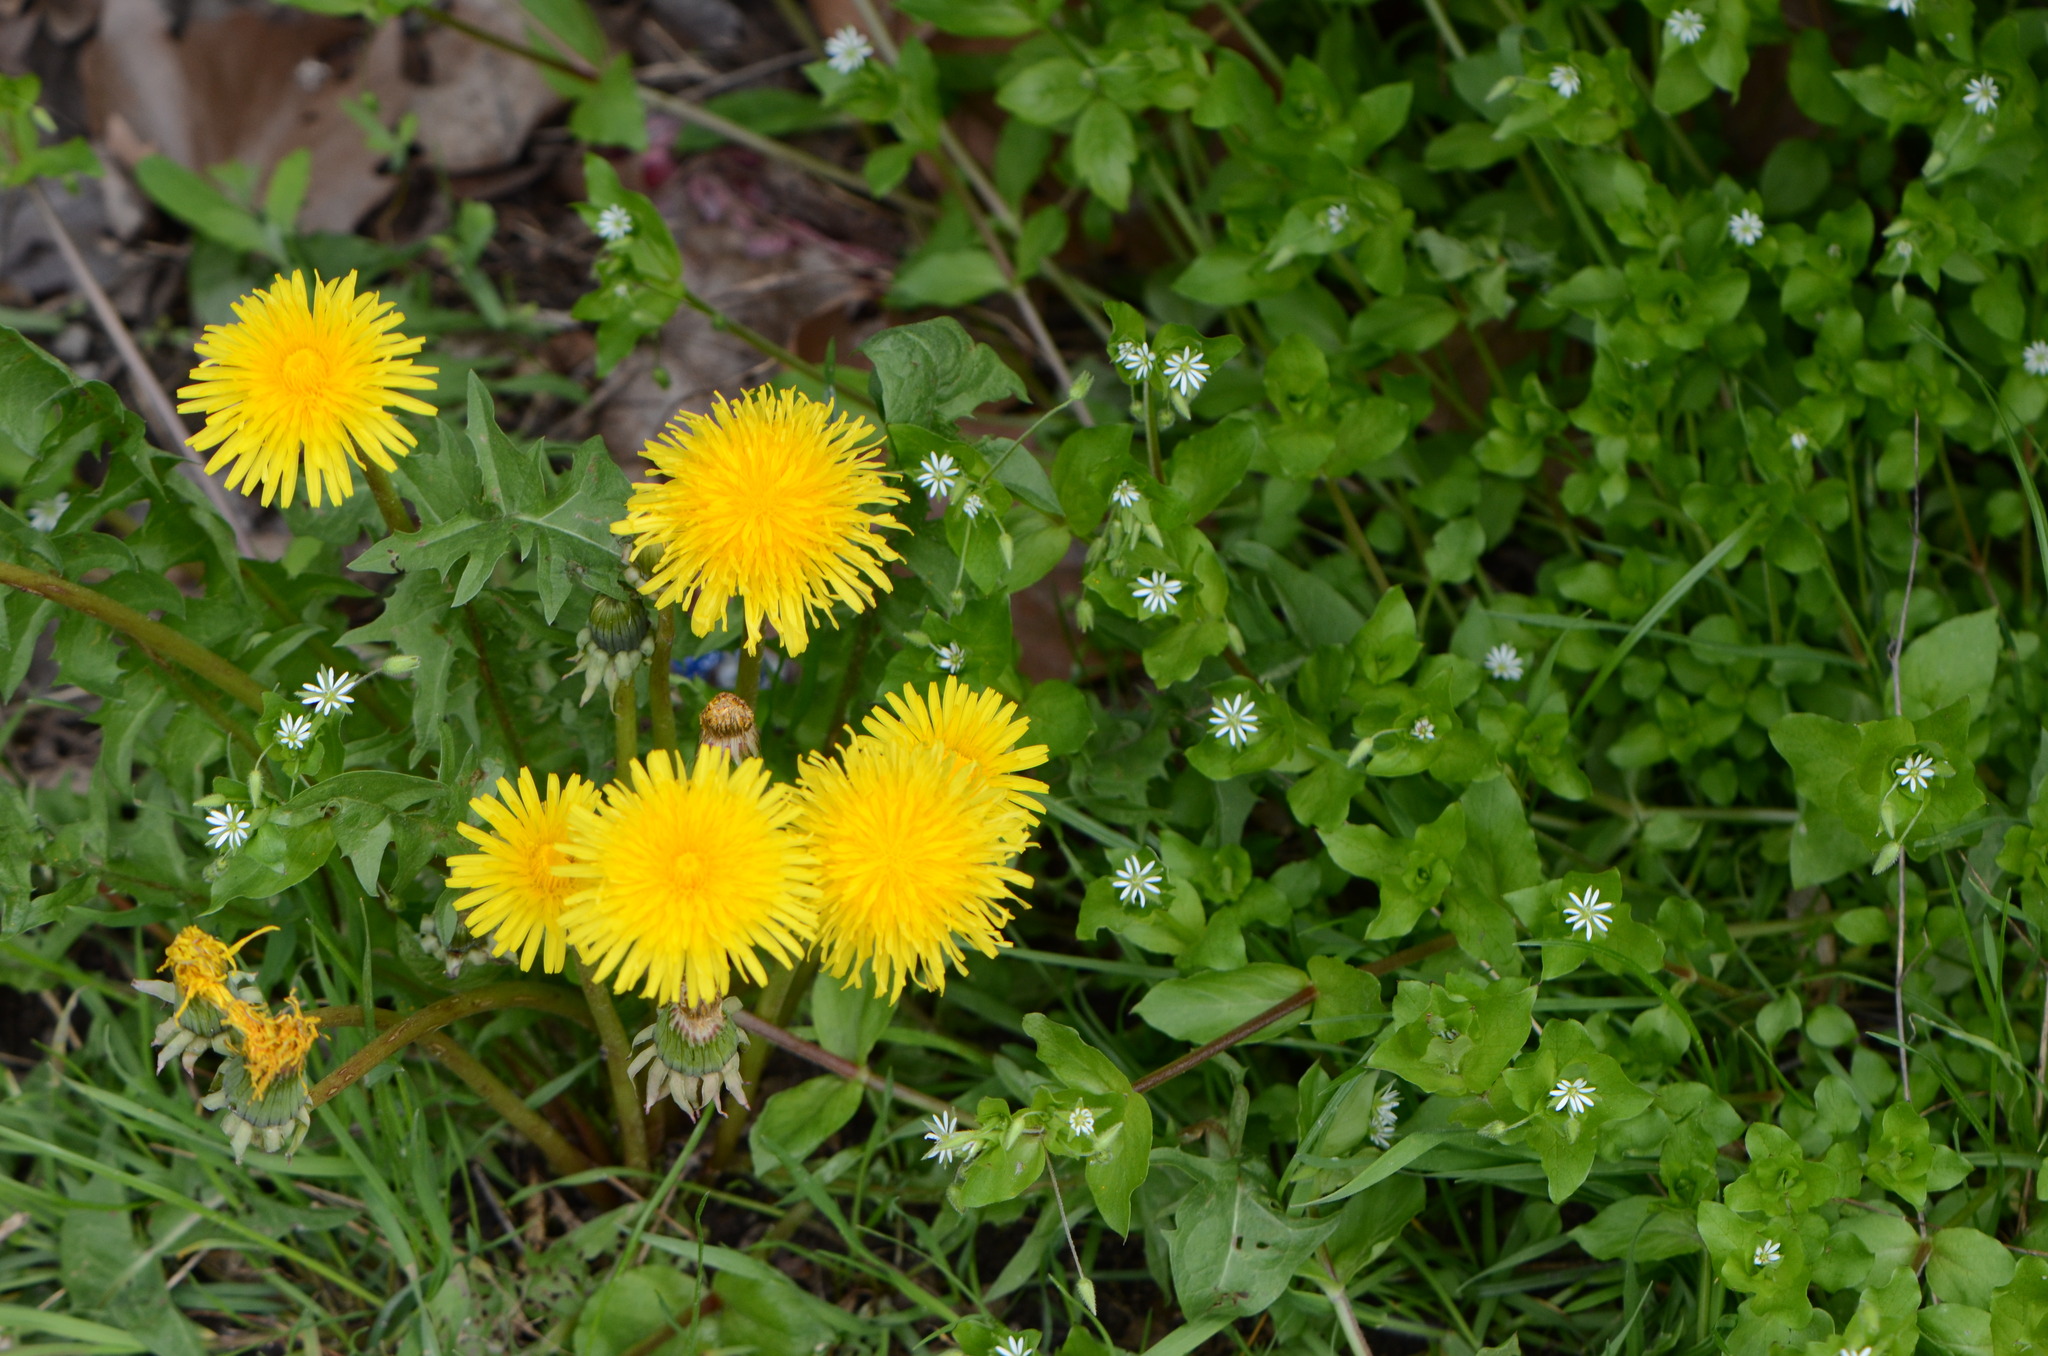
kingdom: Plantae
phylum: Tracheophyta
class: Magnoliopsida
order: Asterales
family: Asteraceae
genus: Taraxacum
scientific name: Taraxacum
